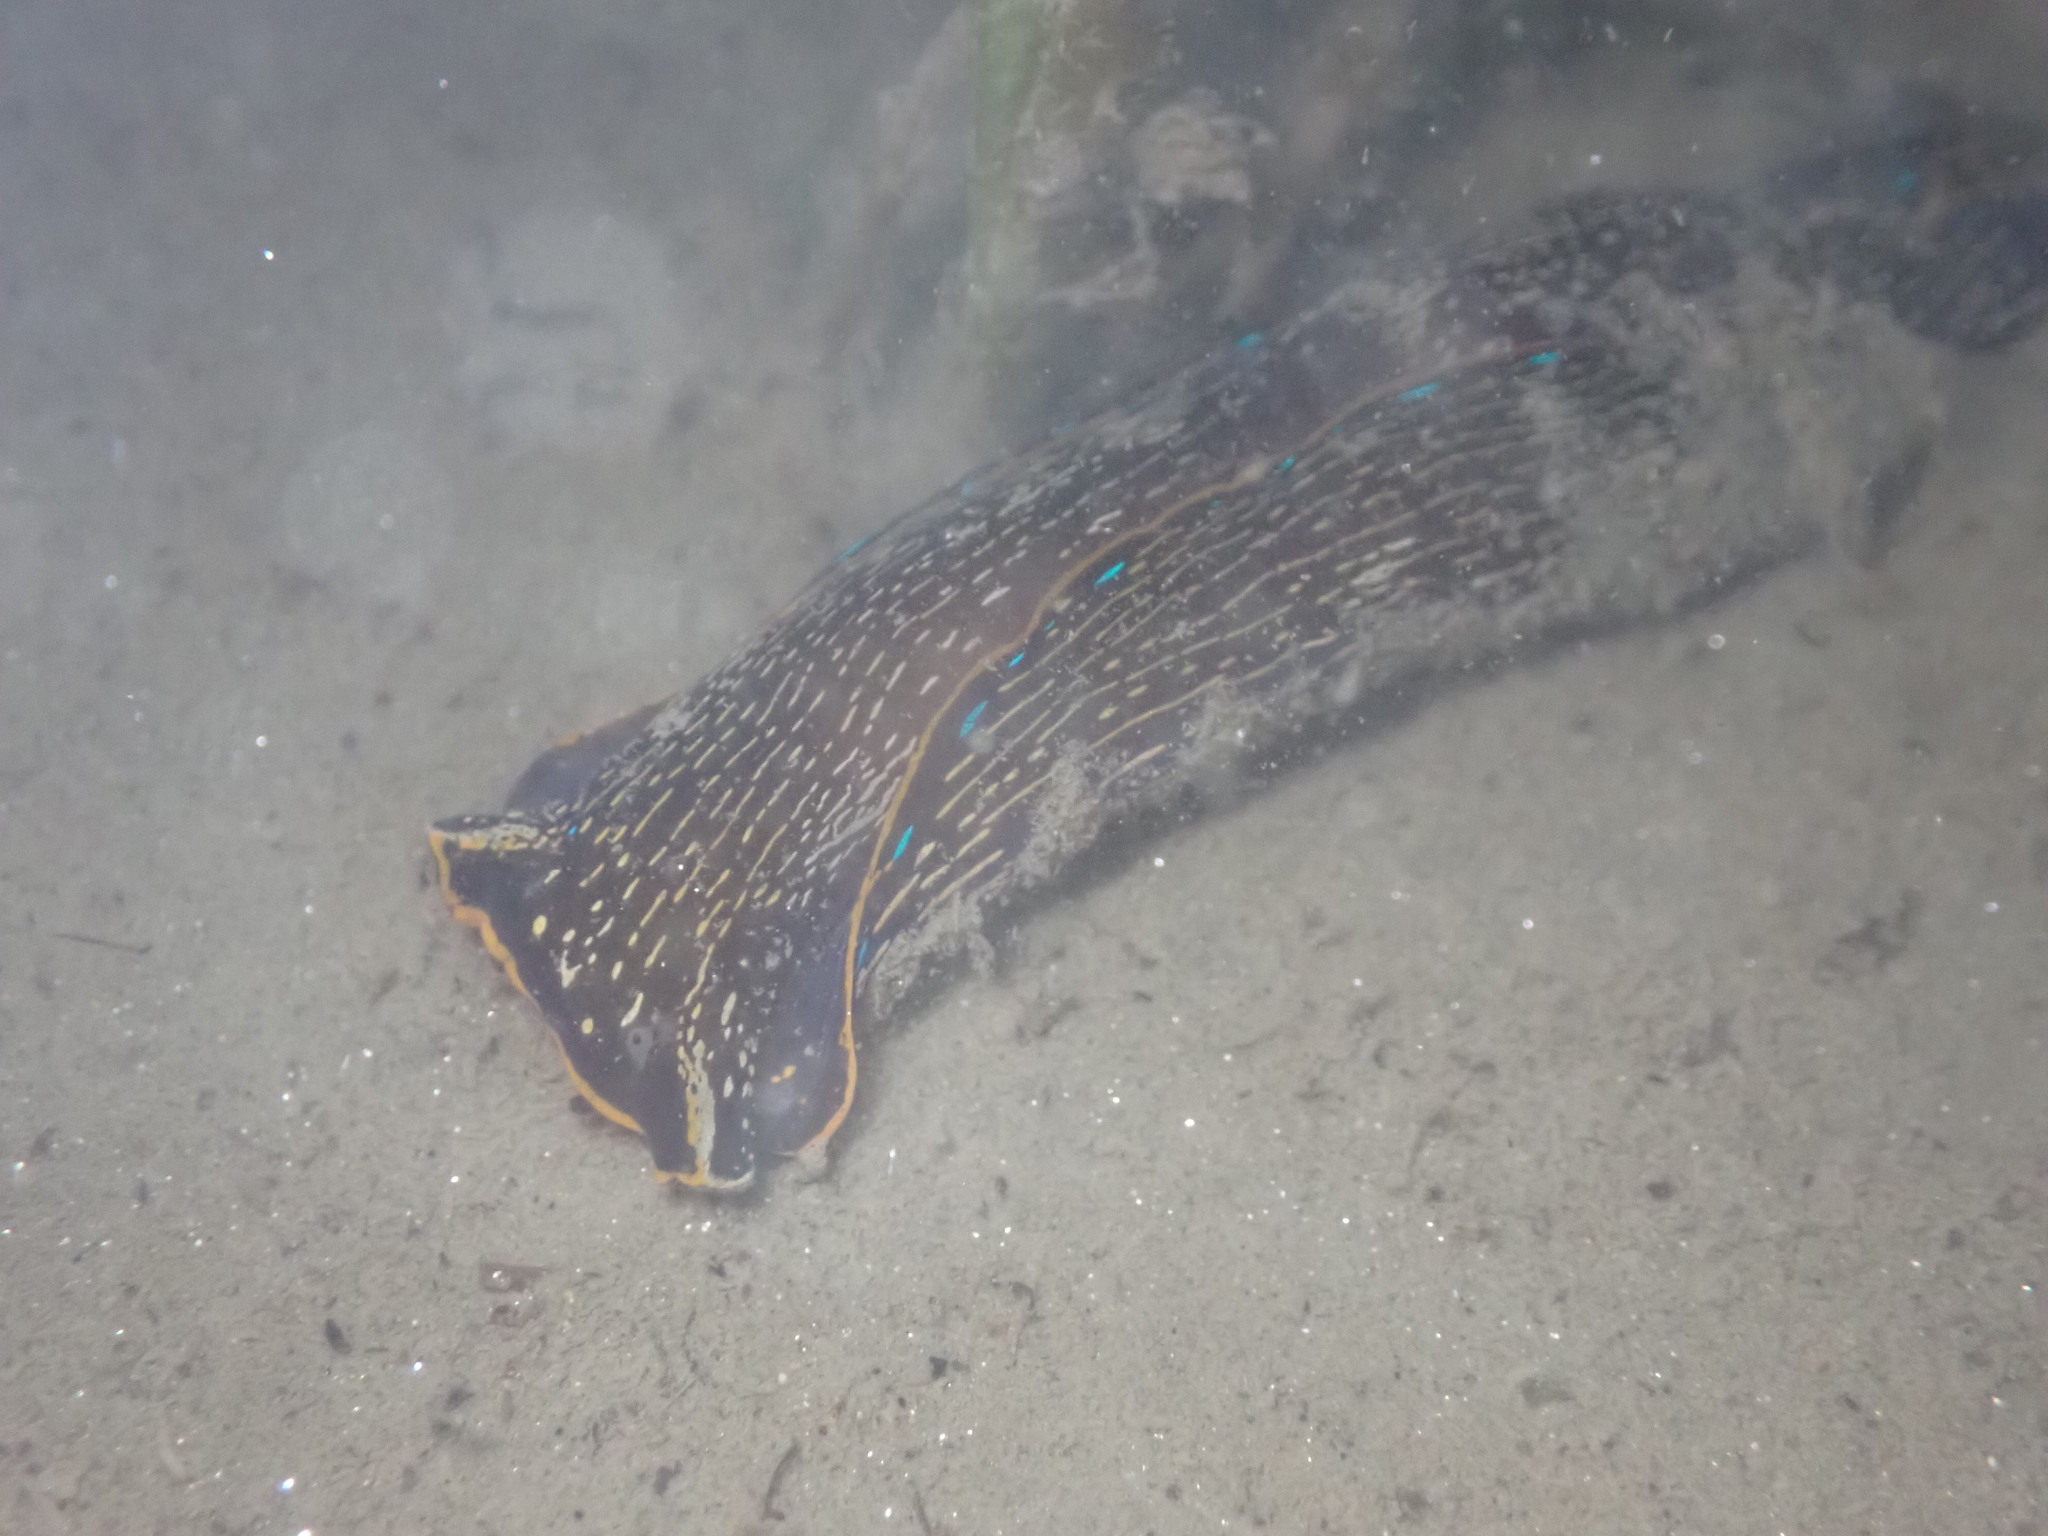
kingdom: Animalia
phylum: Mollusca
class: Gastropoda
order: Cephalaspidea
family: Aglajidae
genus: Navanax
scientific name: Navanax inermis
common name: California aglaja
